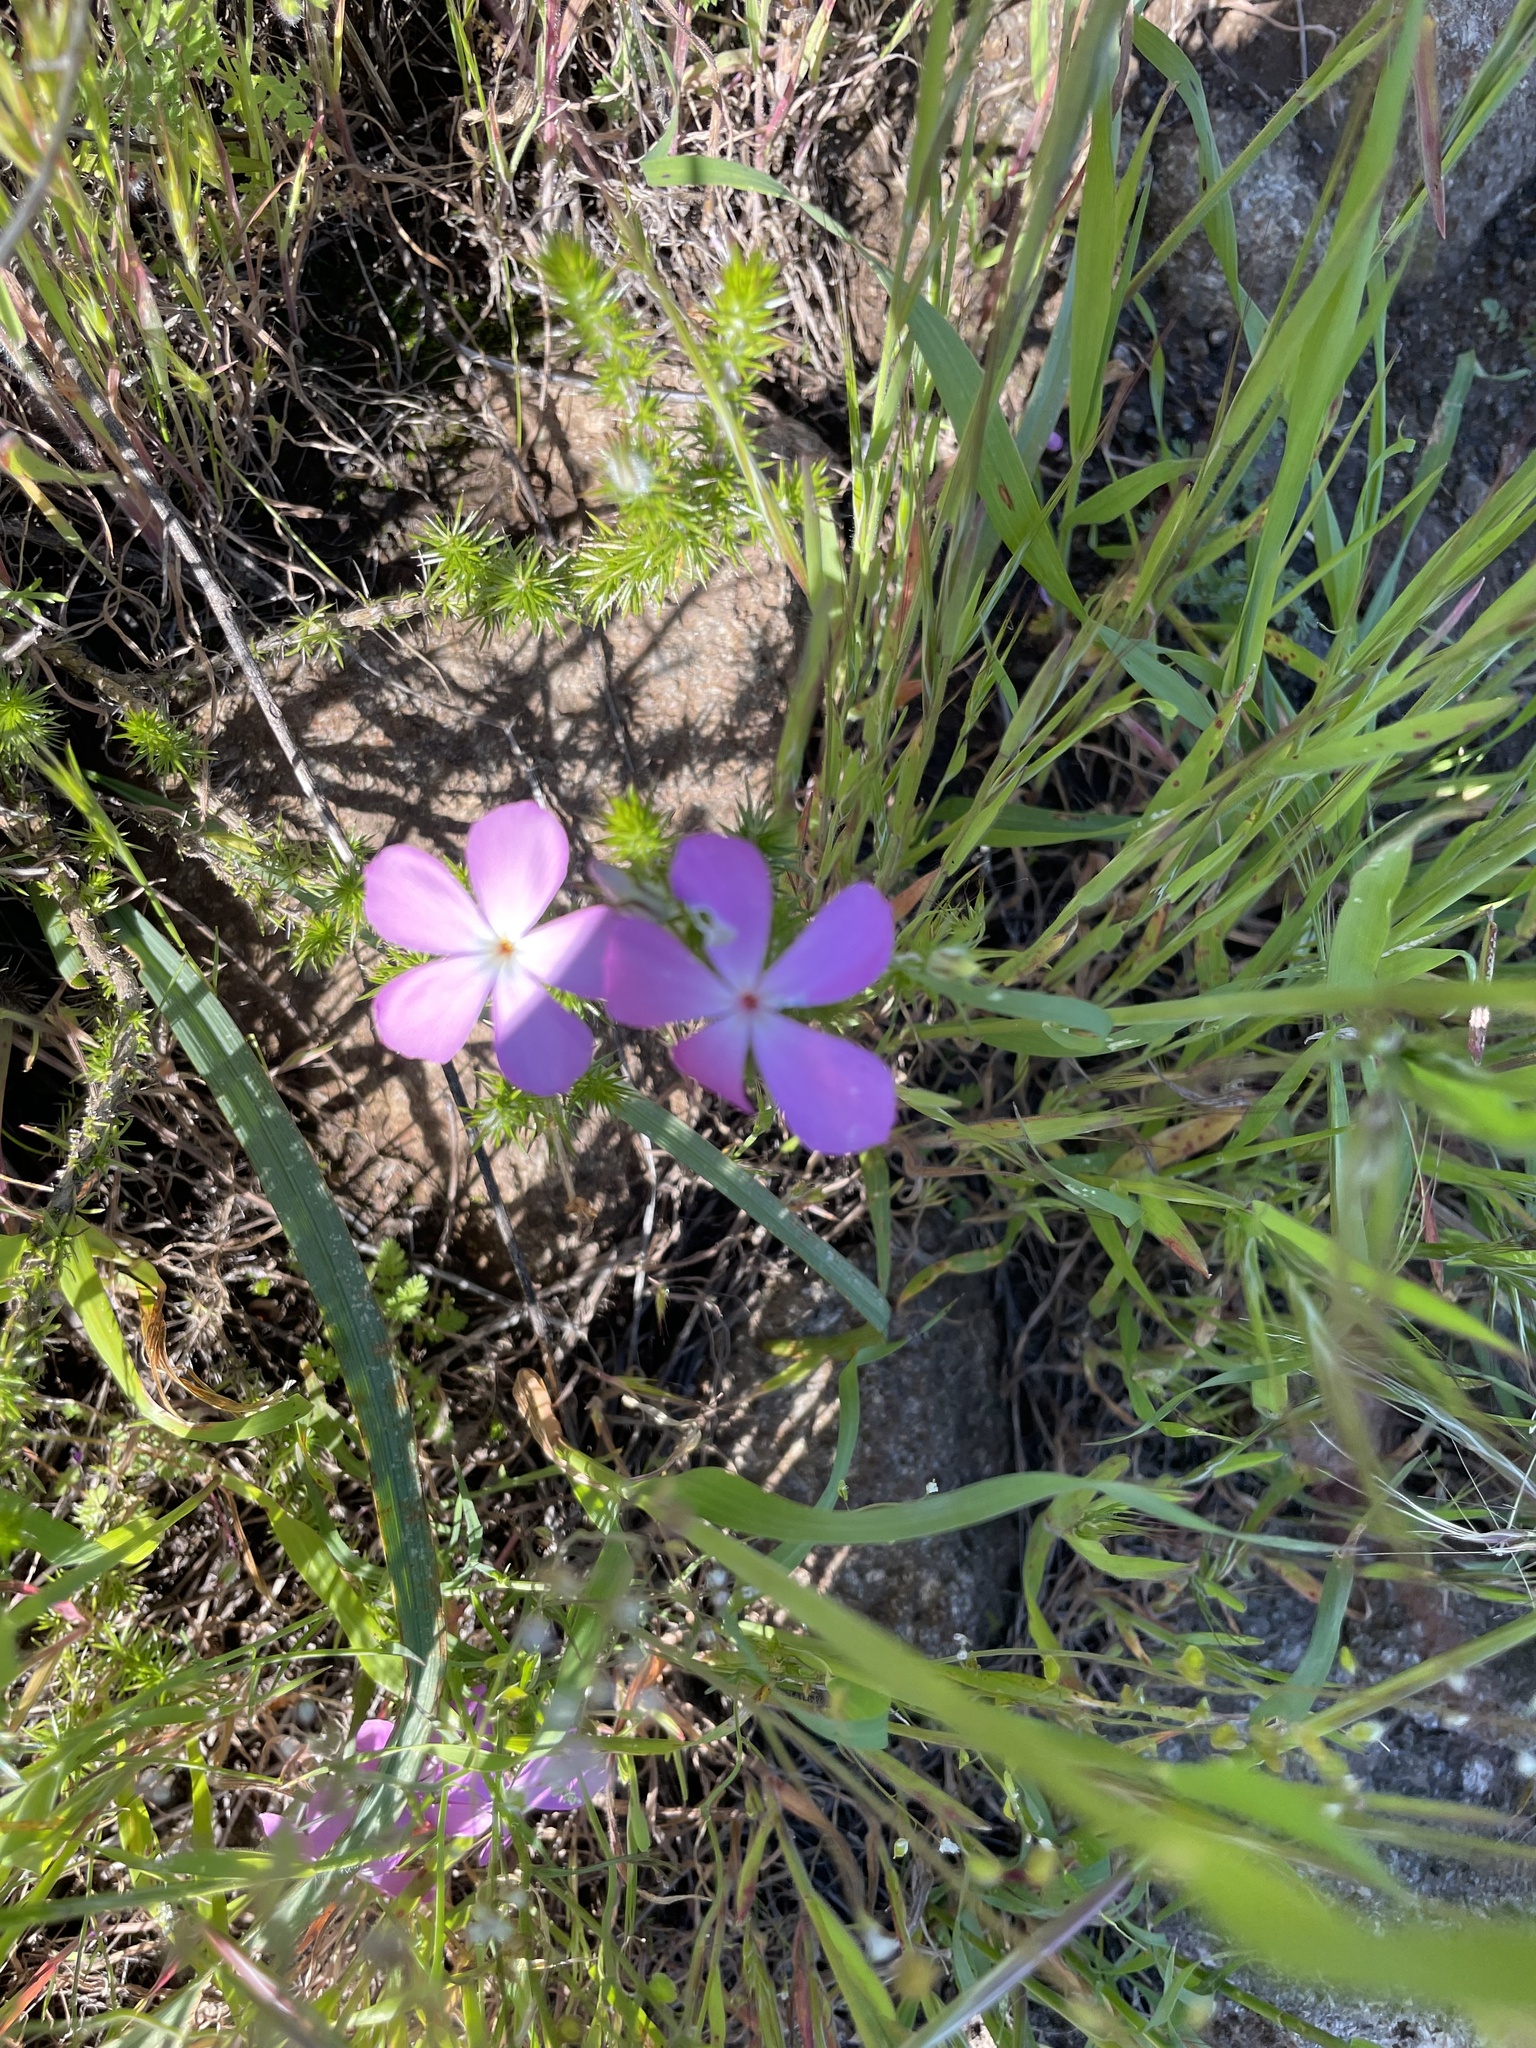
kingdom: Plantae
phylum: Tracheophyta
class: Magnoliopsida
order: Ericales
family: Polemoniaceae
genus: Linanthus
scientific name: Linanthus californicus
